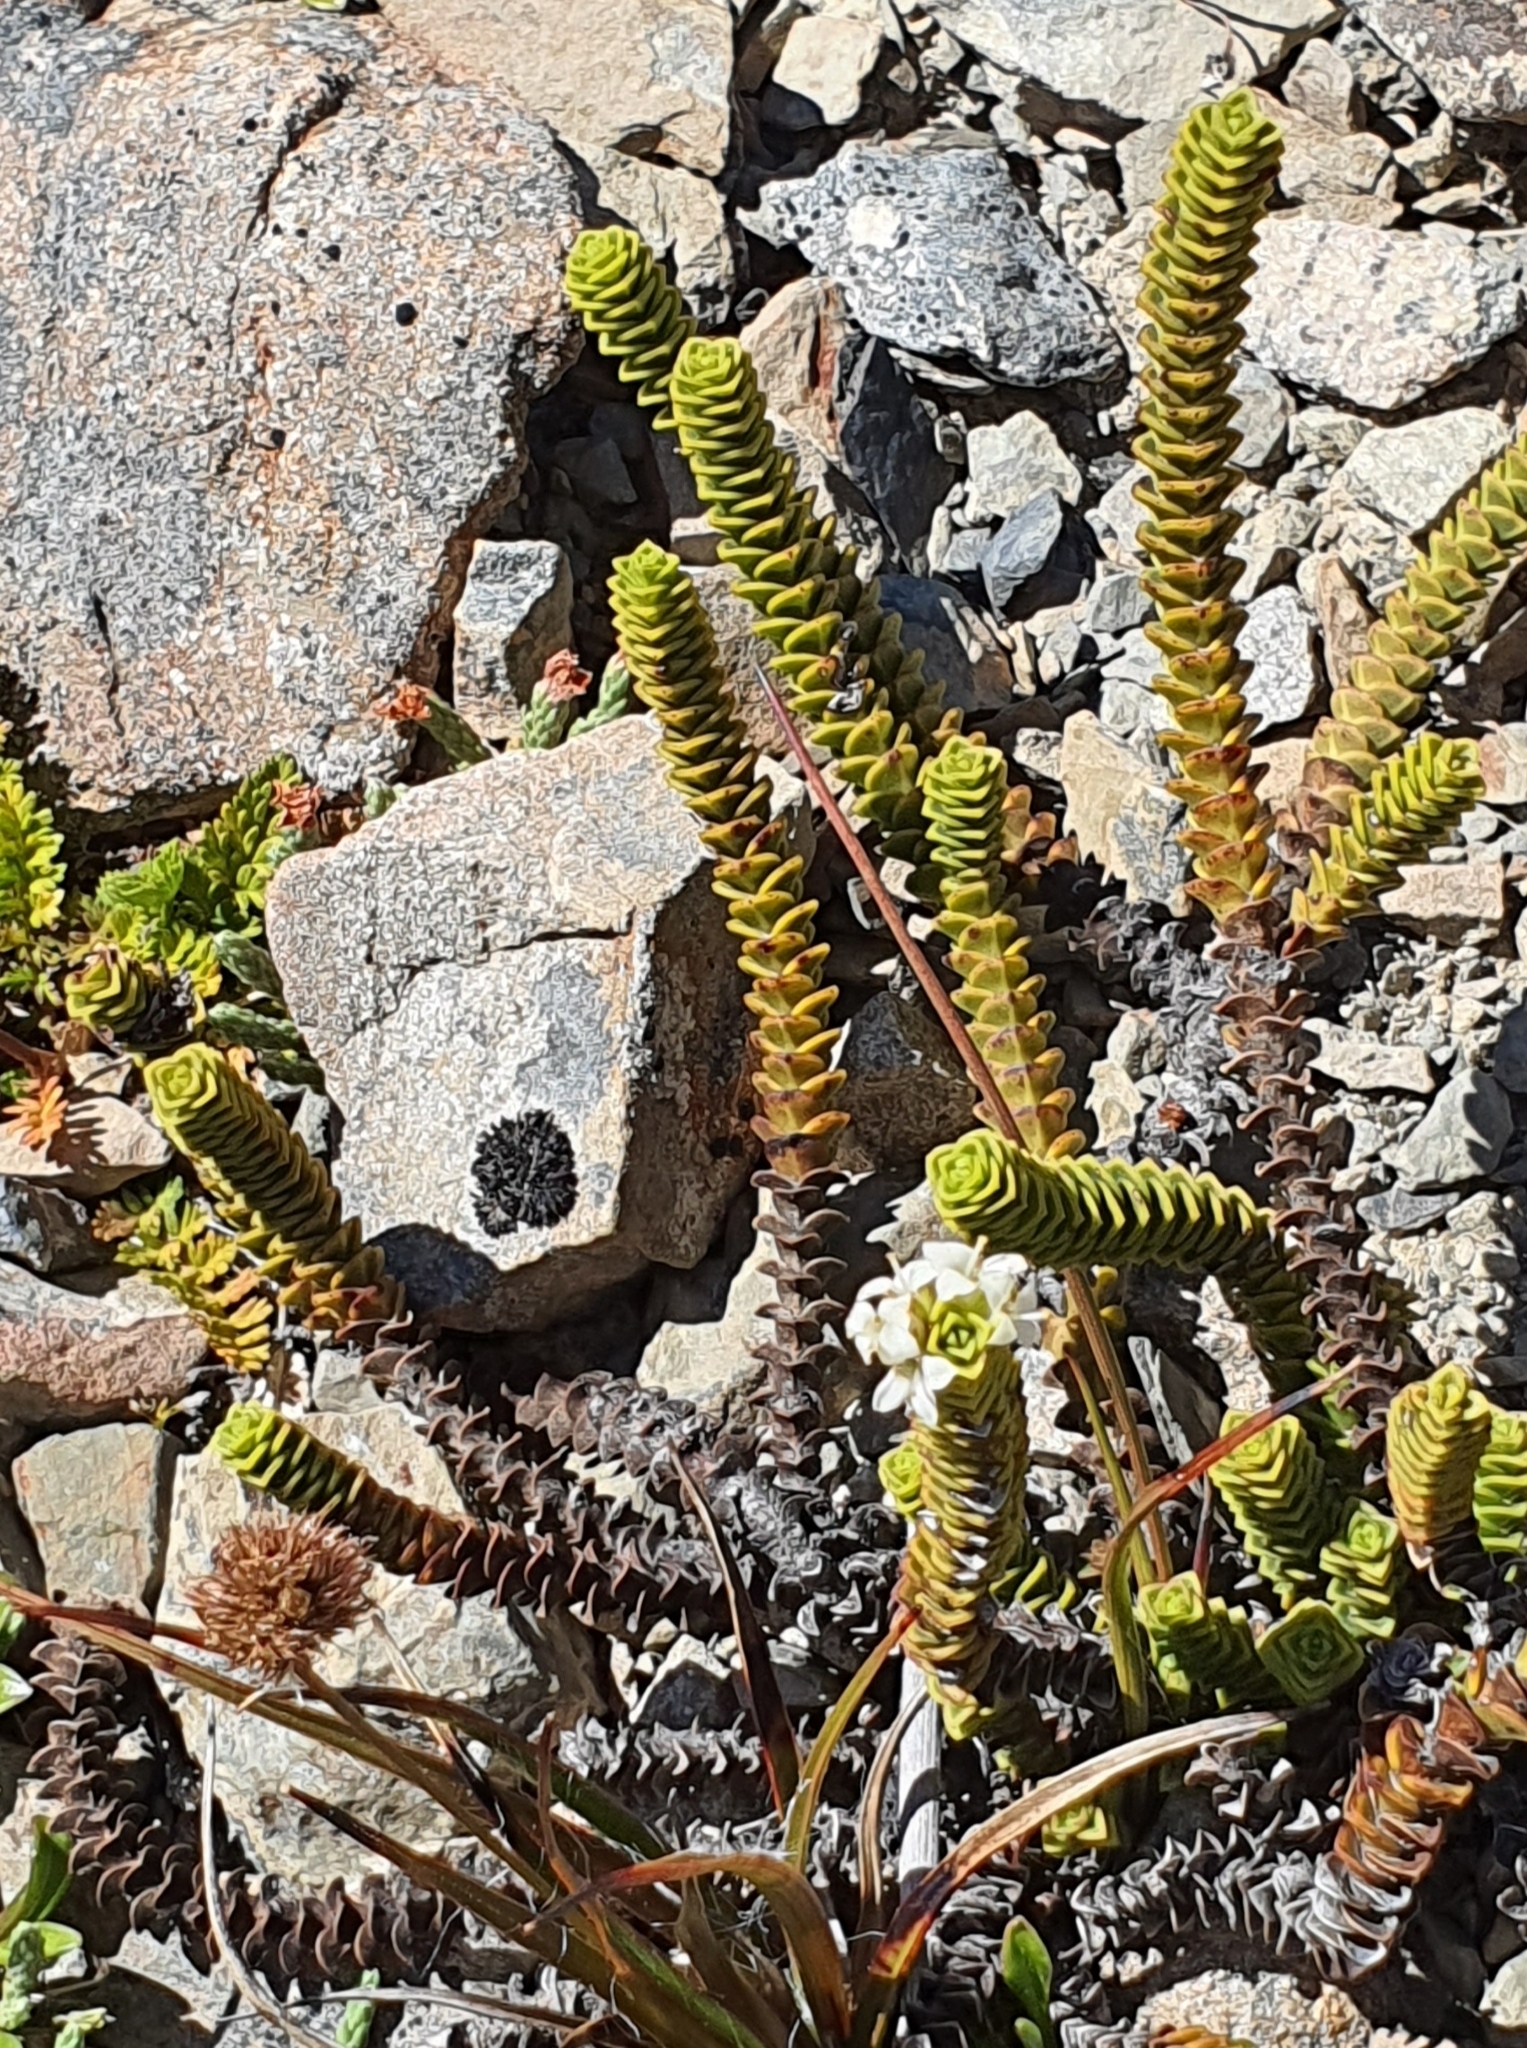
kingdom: Plantae
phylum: Tracheophyta
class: Magnoliopsida
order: Lamiales
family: Plantaginaceae
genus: Veronica
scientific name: Veronica epacridea
